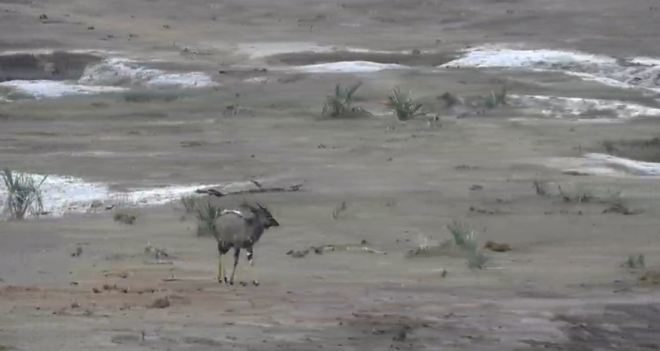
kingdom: Animalia
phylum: Chordata
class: Mammalia
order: Artiodactyla
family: Bovidae
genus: Tragelaphus
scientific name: Tragelaphus angasii
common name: Nyala
